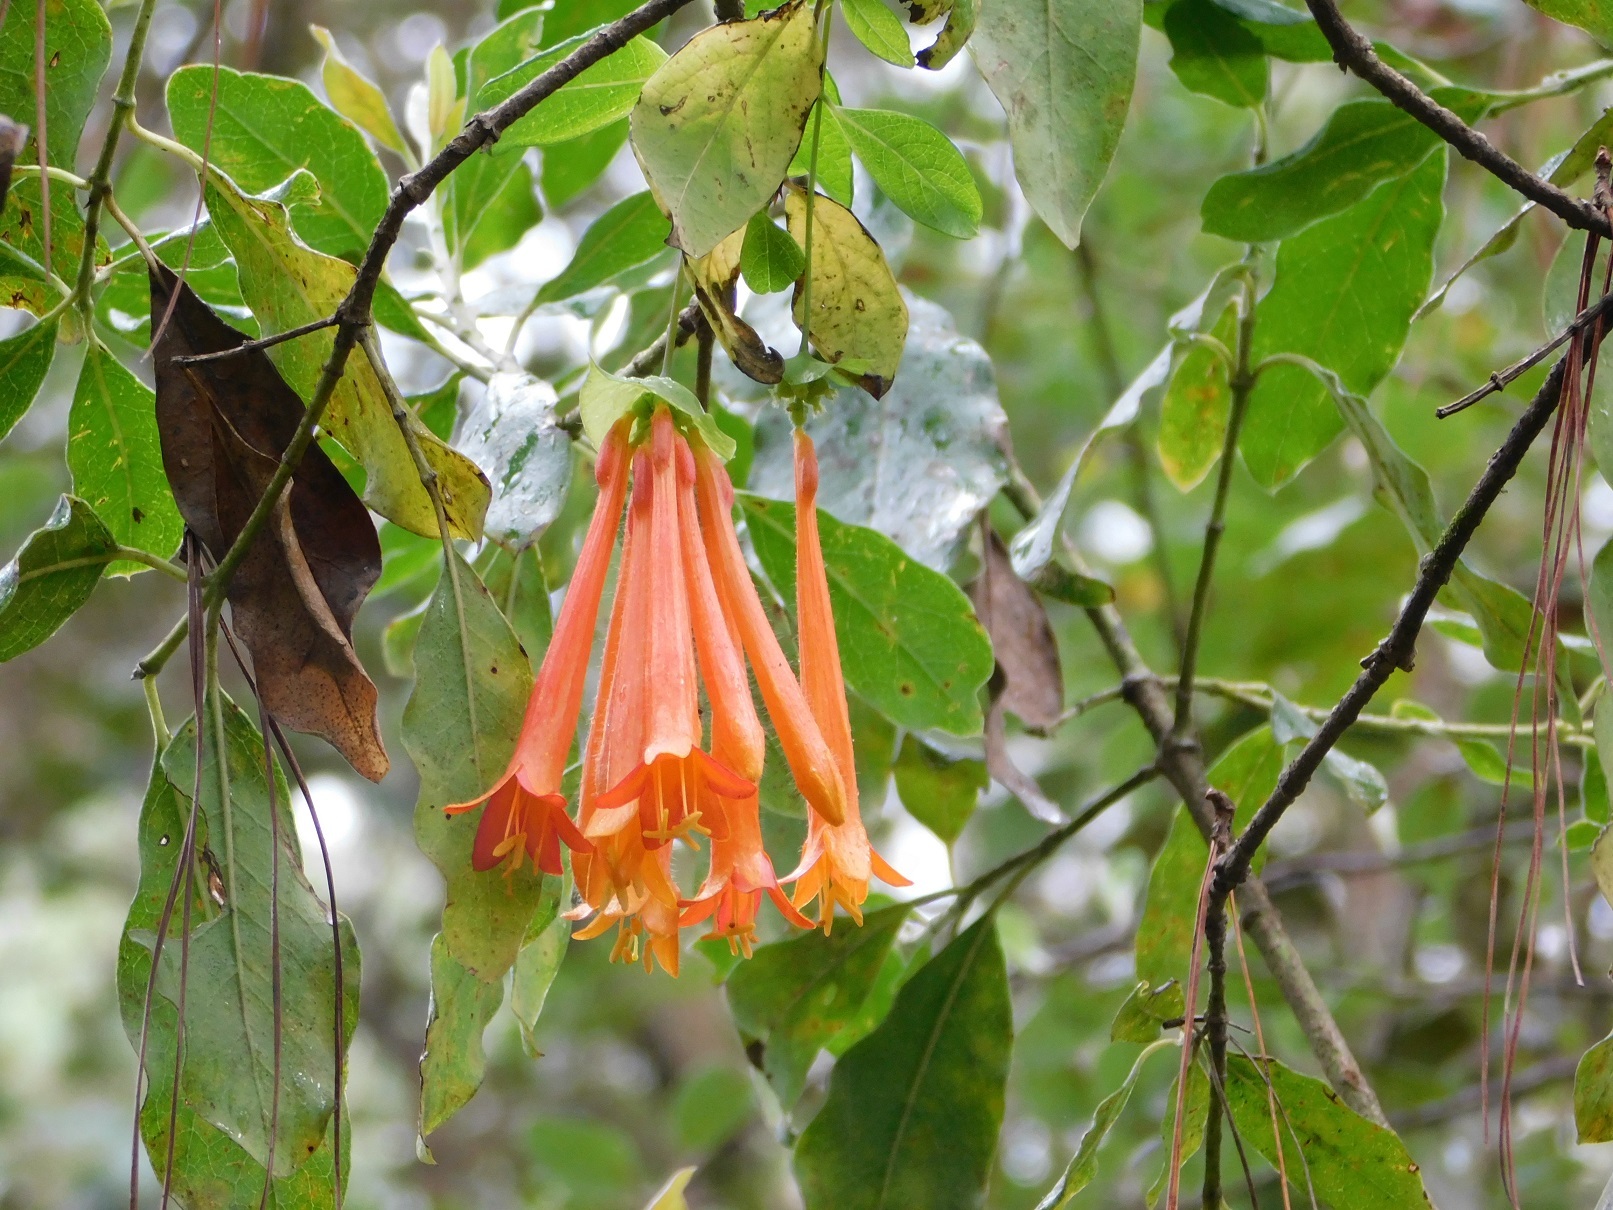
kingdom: Plantae
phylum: Tracheophyta
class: Magnoliopsida
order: Dipsacales
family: Caprifoliaceae
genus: Lonicera
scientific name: Lonicera pilosa
